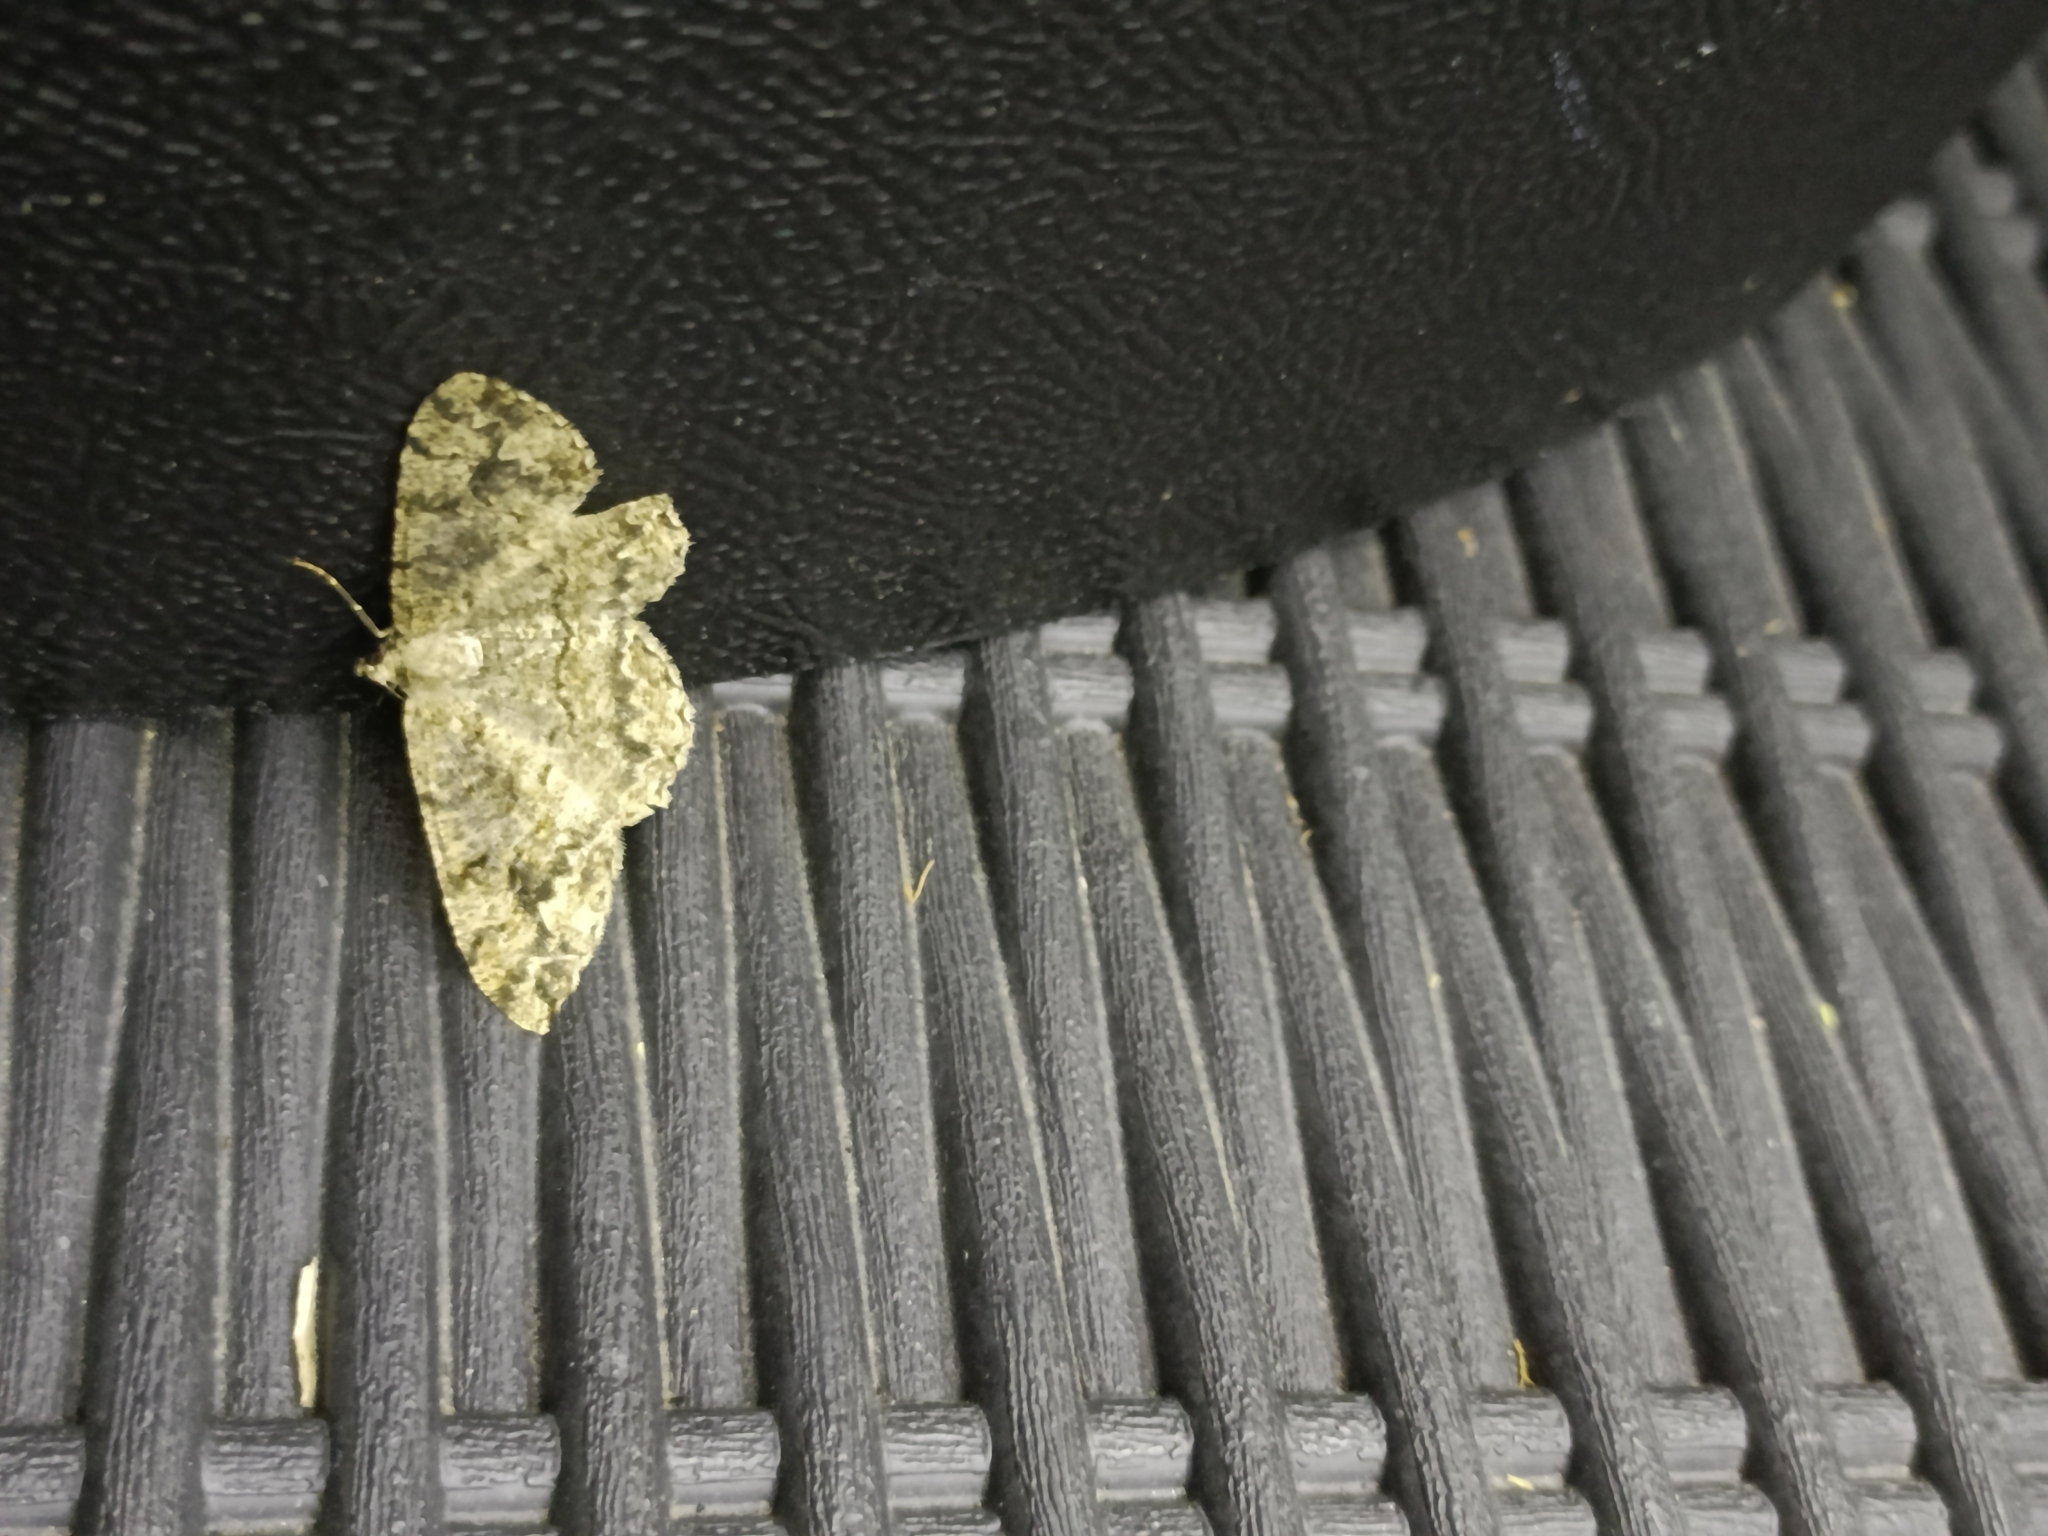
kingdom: Animalia
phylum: Arthropoda
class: Insecta
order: Lepidoptera
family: Geometridae
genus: Alcis
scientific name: Alcis repandata
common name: Mottled beauty
